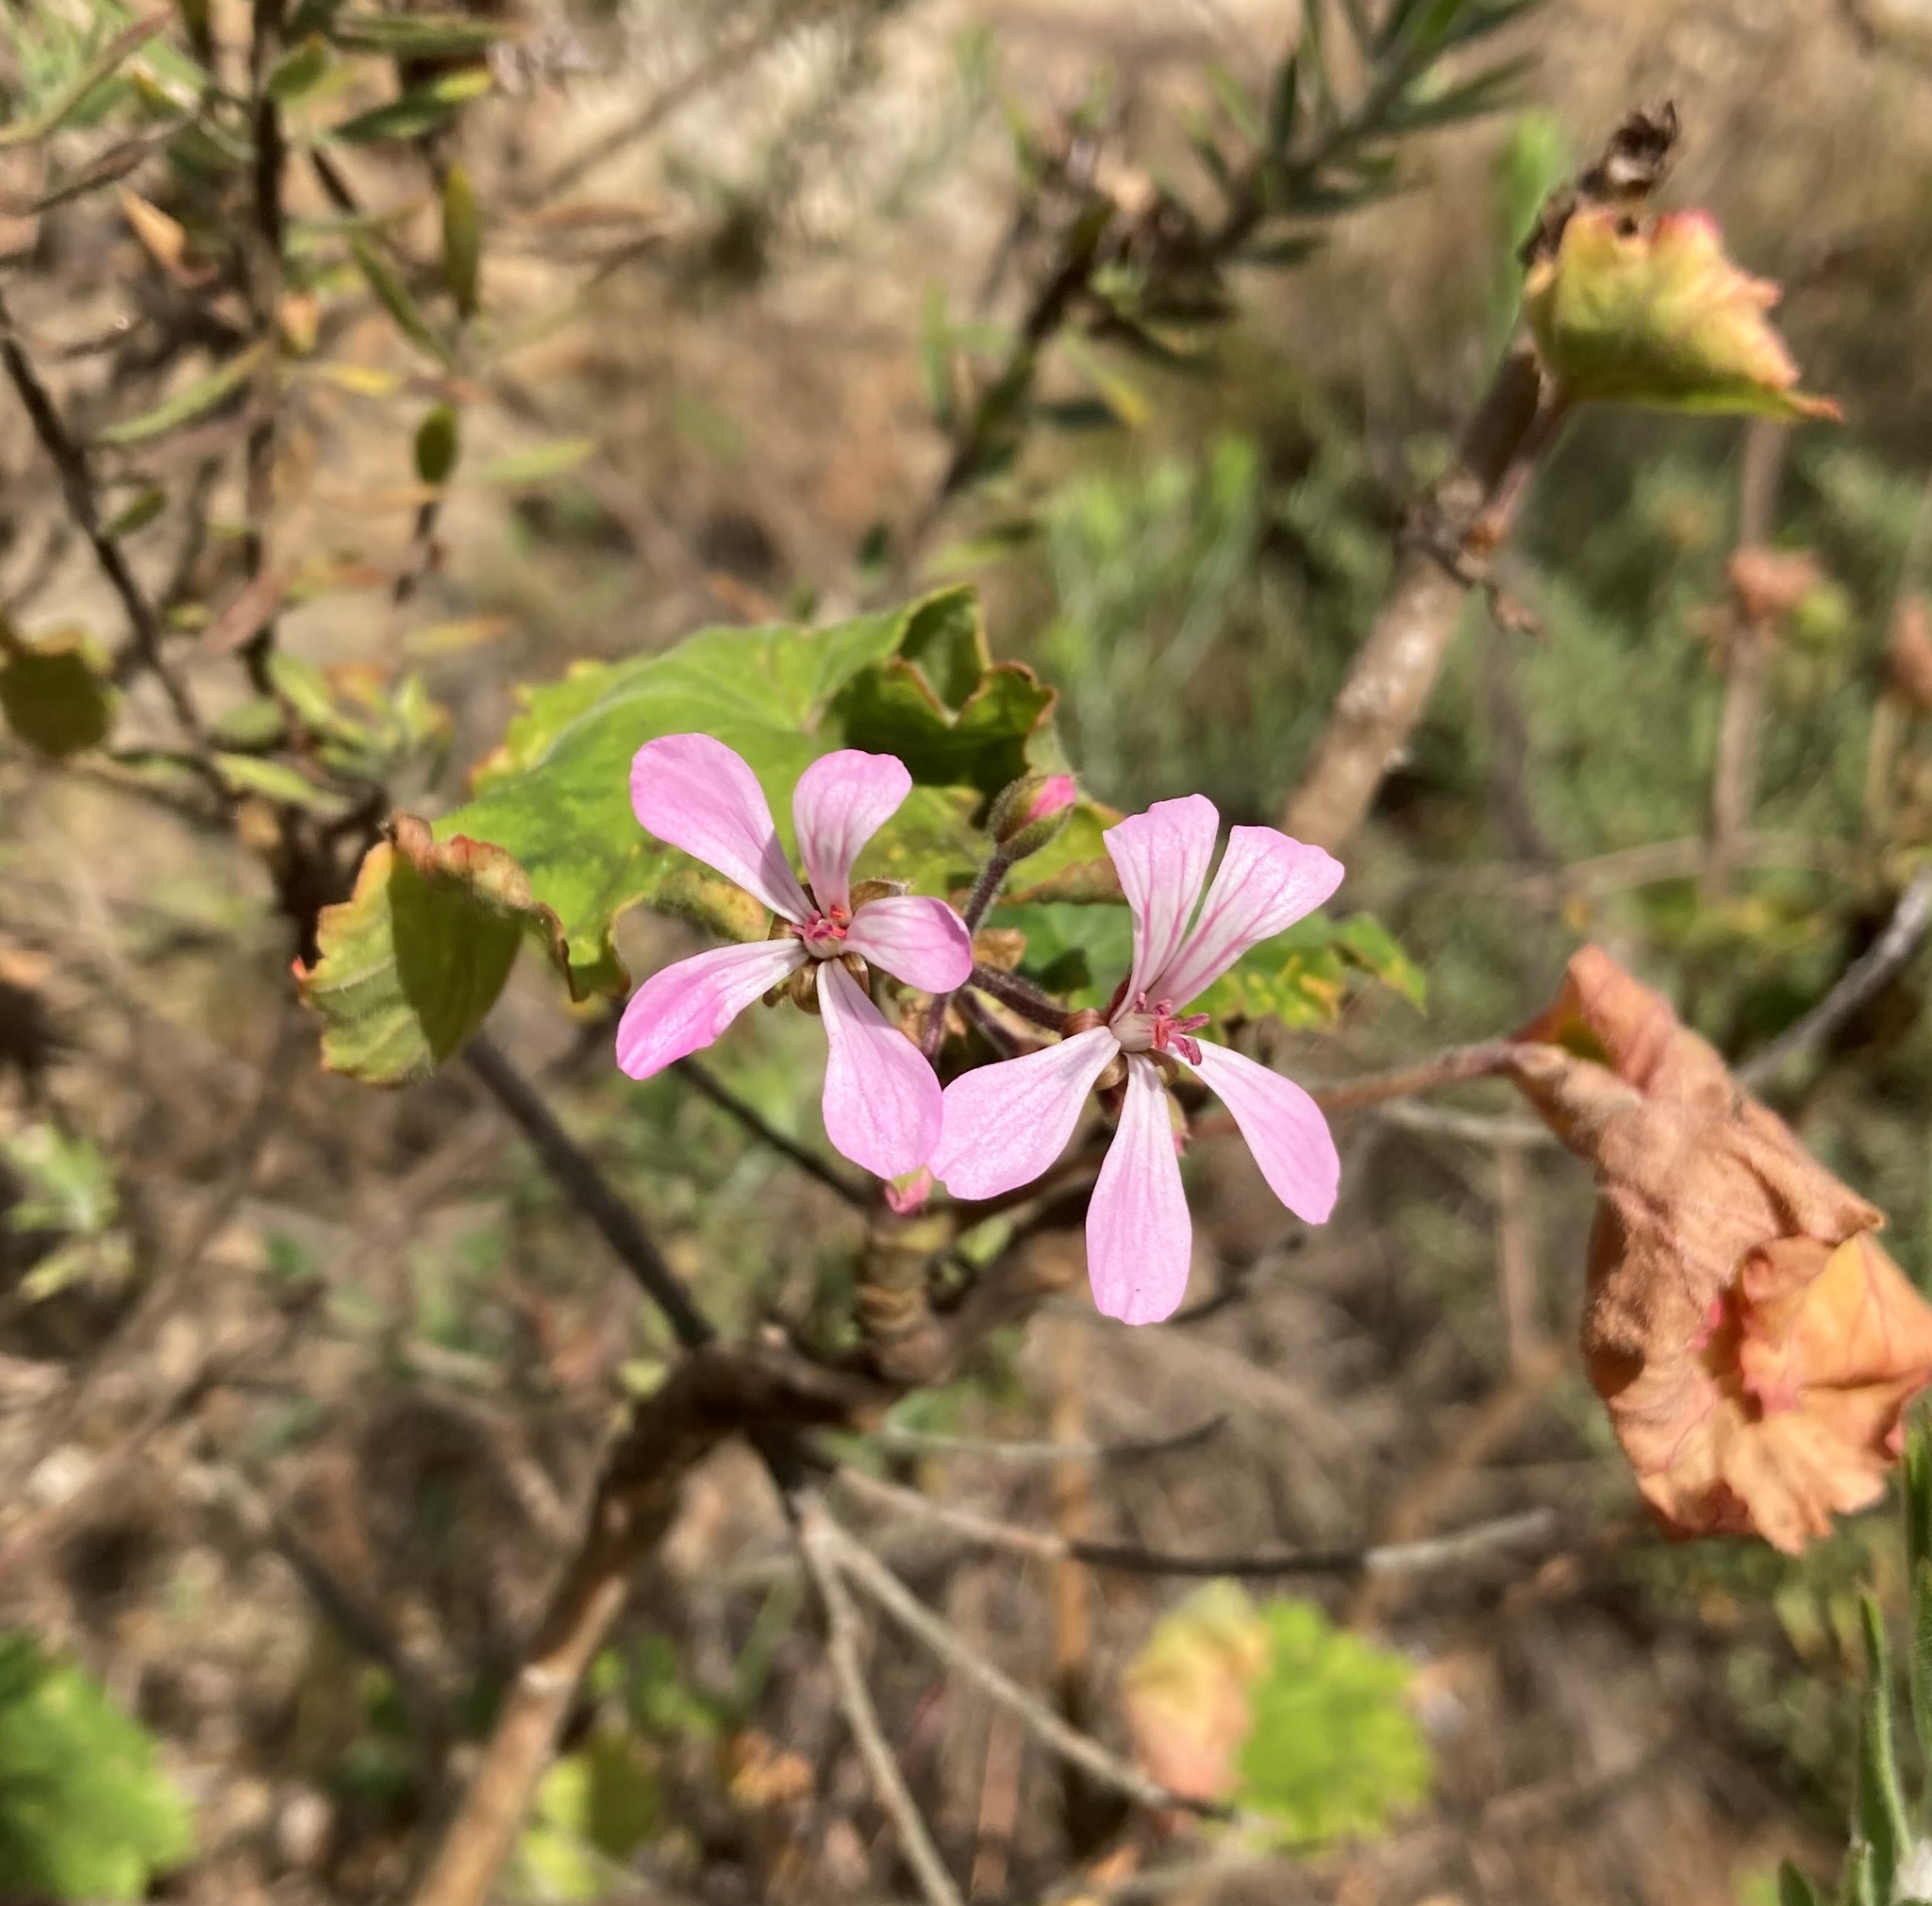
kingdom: Plantae
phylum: Tracheophyta
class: Magnoliopsida
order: Geraniales
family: Geraniaceae
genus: Pelargonium
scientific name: Pelargonium zonale
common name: Horseshoe geranium
